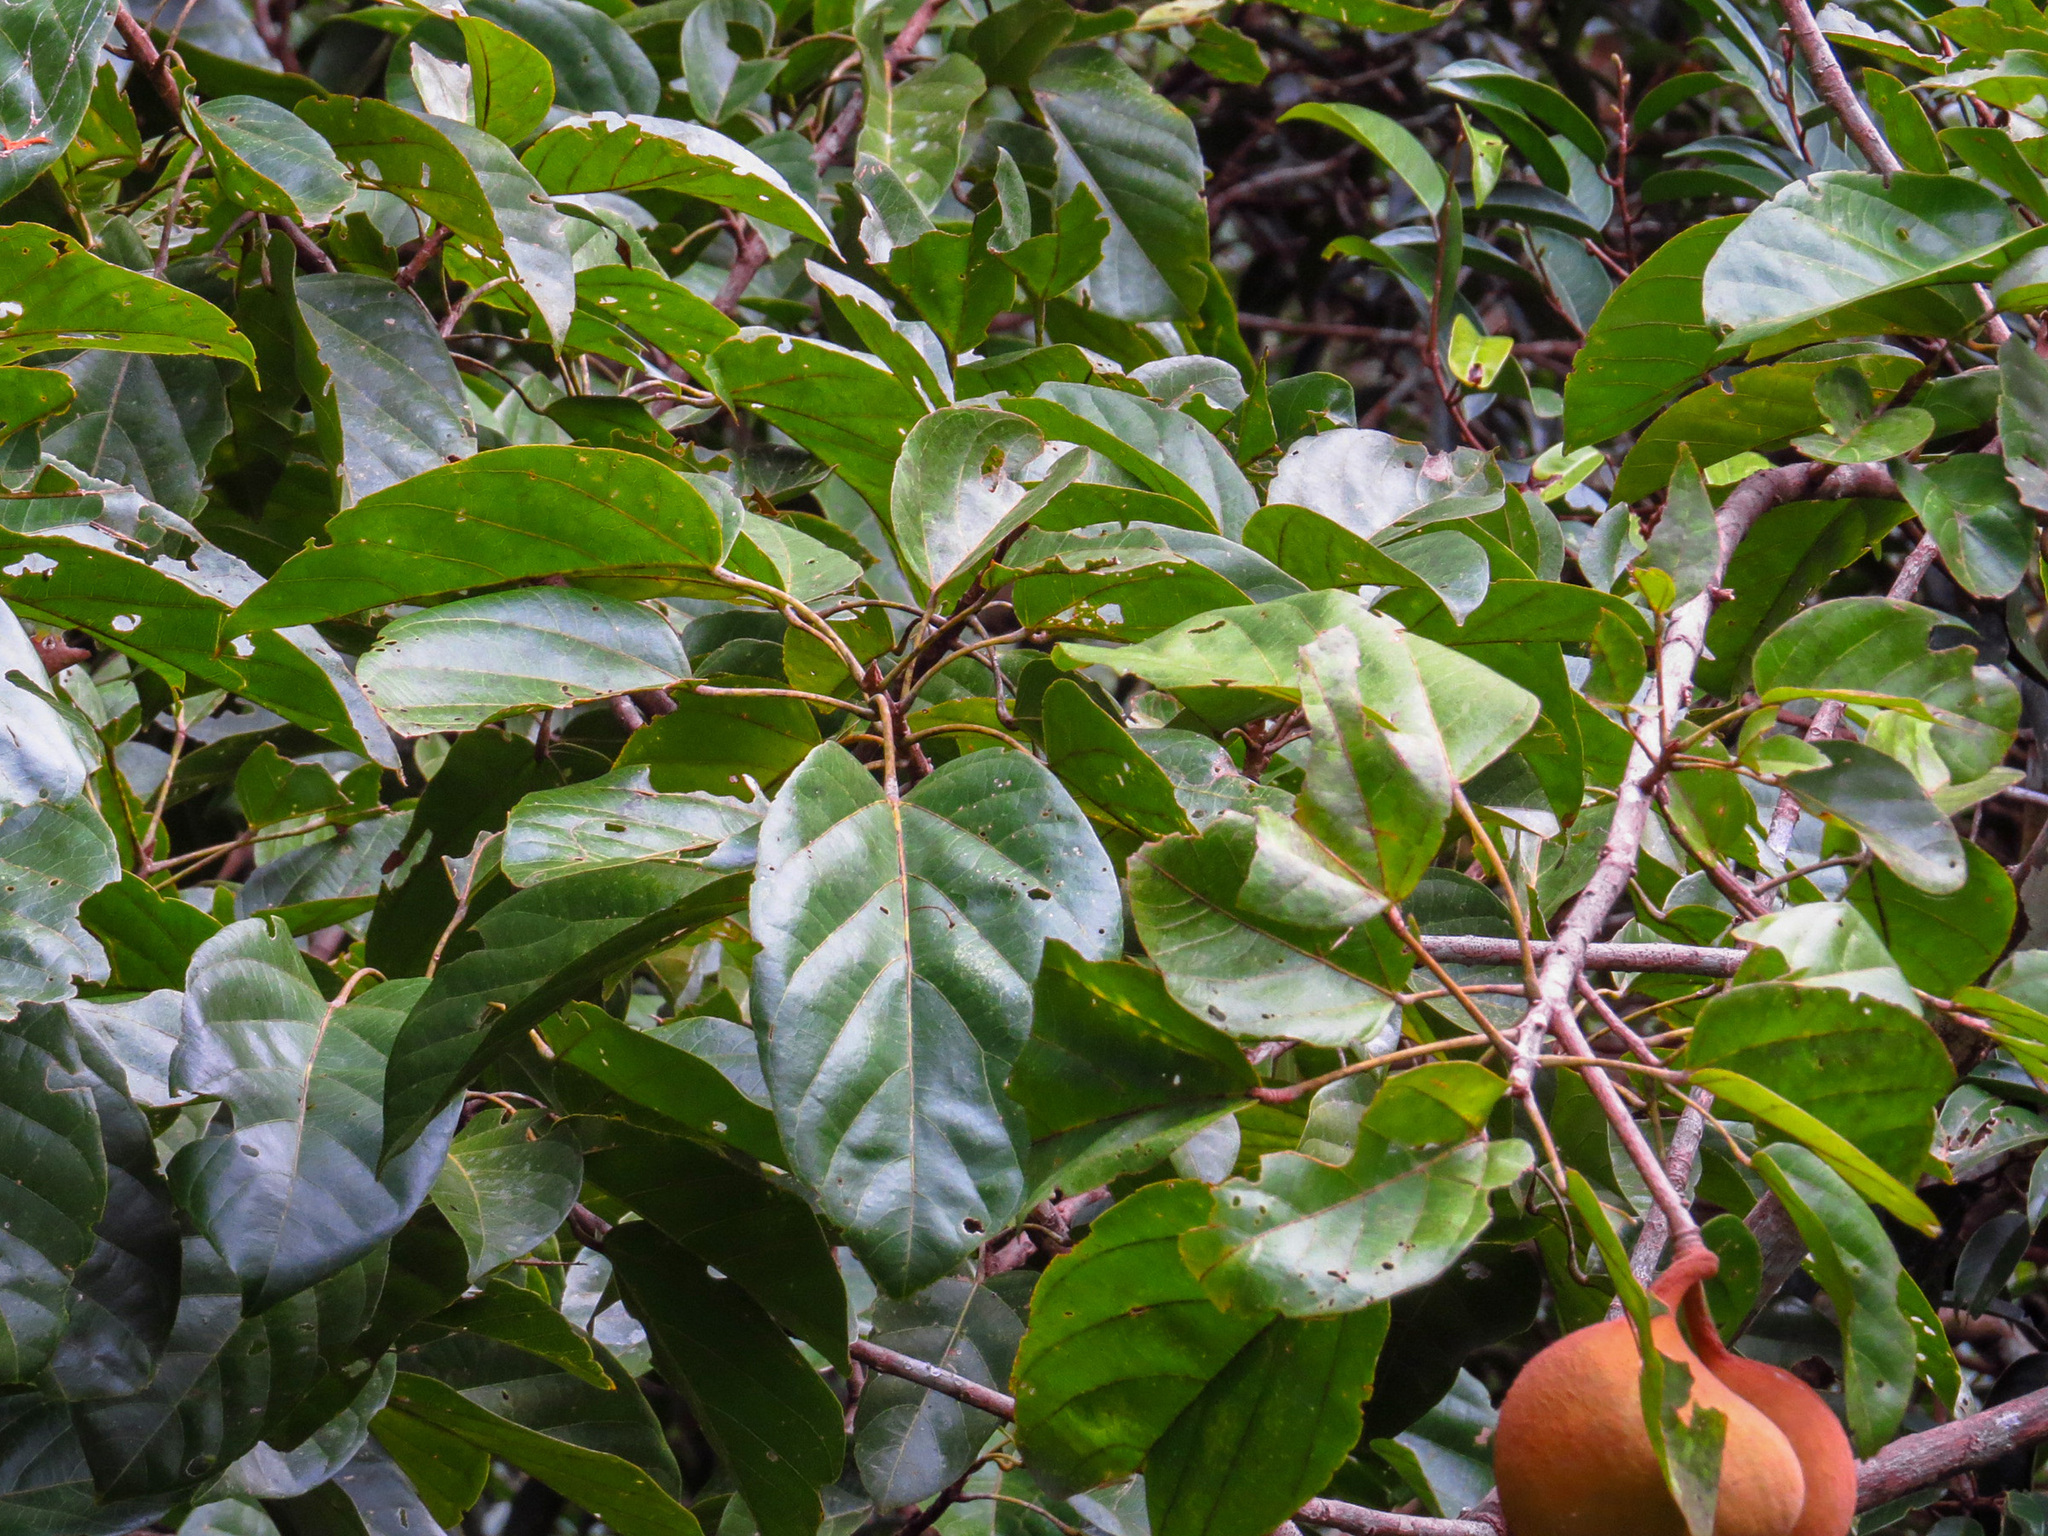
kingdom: Plantae
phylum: Tracheophyta
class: Magnoliopsida
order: Malvales
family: Malvaceae
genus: Pterygota
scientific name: Pterygota alata
